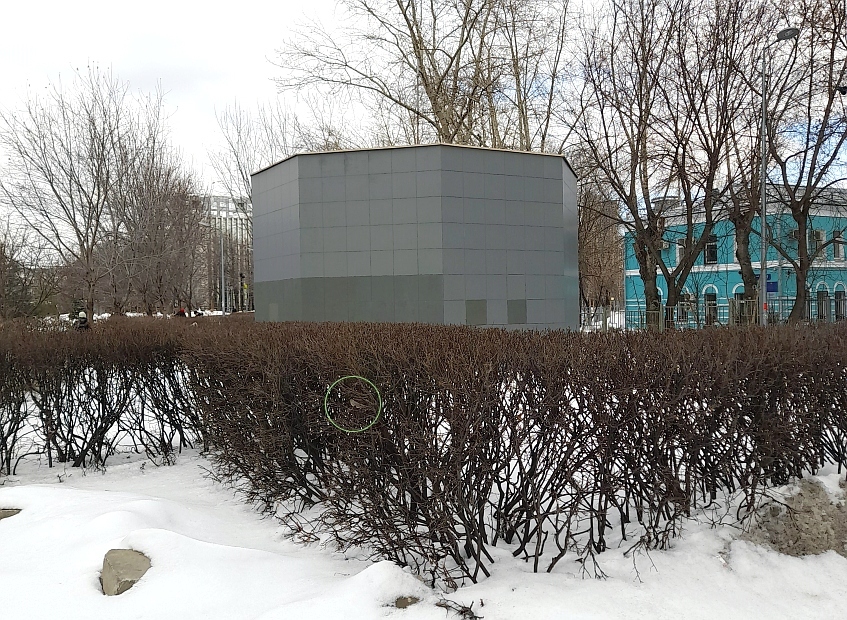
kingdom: Animalia
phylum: Chordata
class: Aves
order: Passeriformes
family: Passeridae
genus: Passer
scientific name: Passer domesticus
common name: House sparrow
